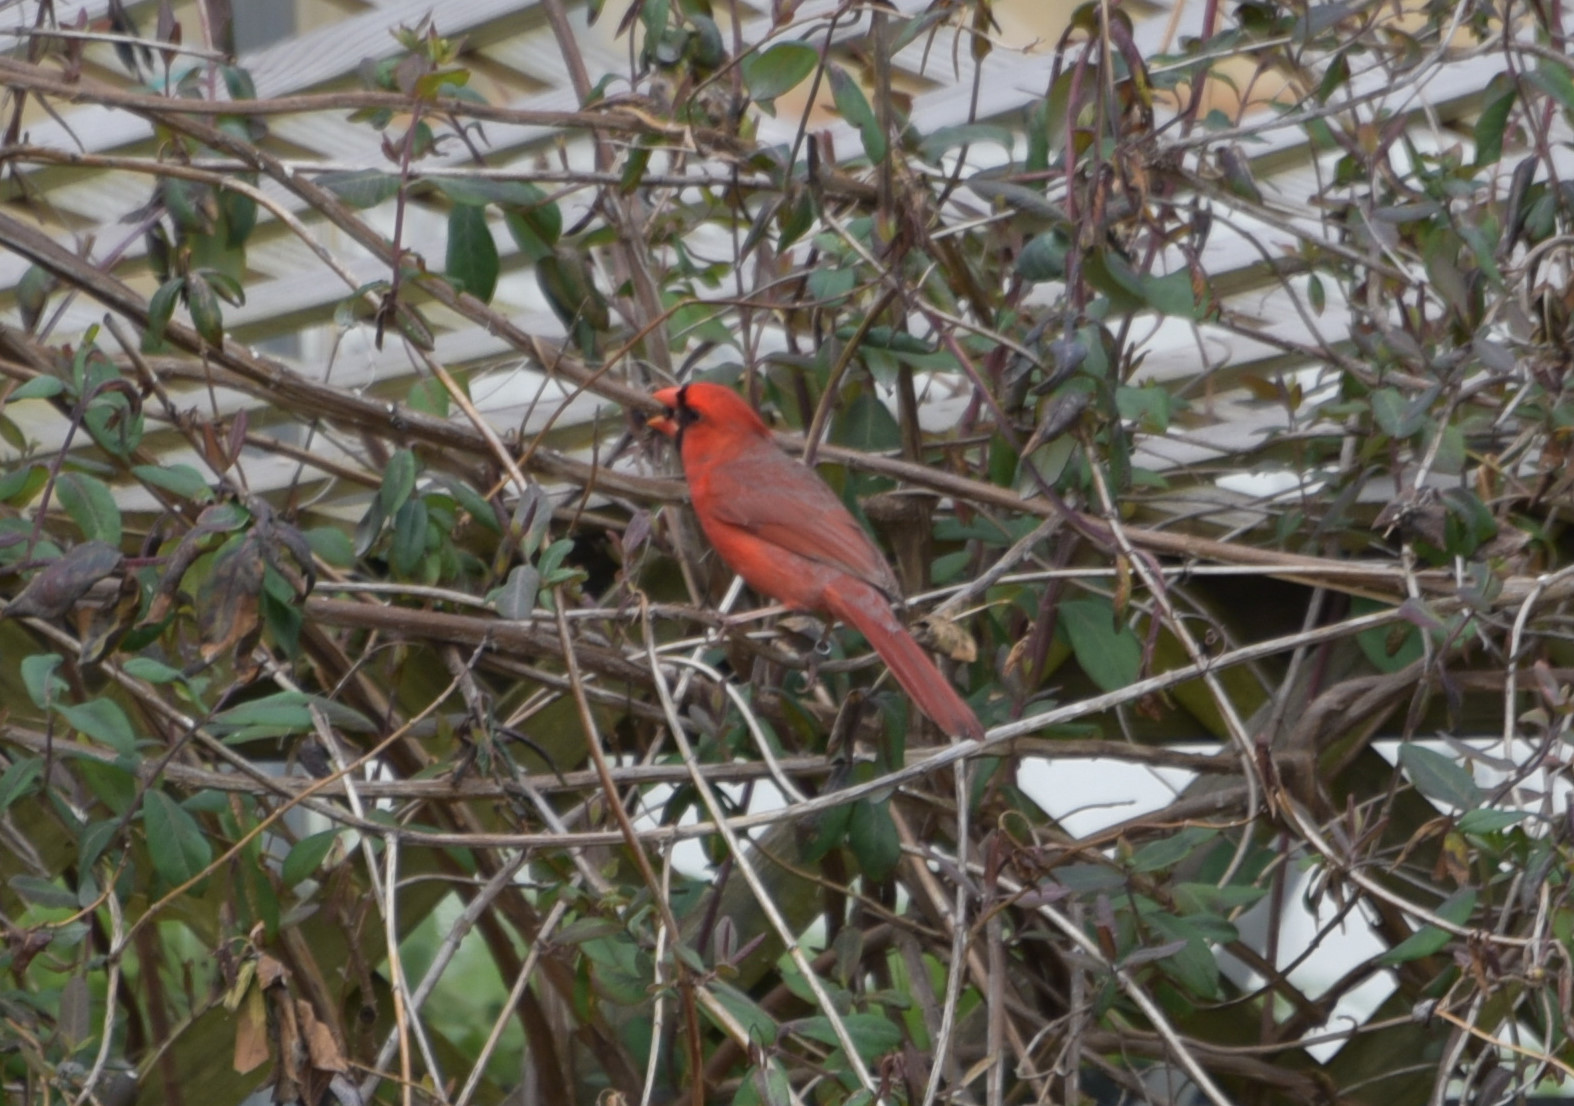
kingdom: Animalia
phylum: Chordata
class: Aves
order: Passeriformes
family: Cardinalidae
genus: Cardinalis
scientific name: Cardinalis cardinalis
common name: Northern cardinal
